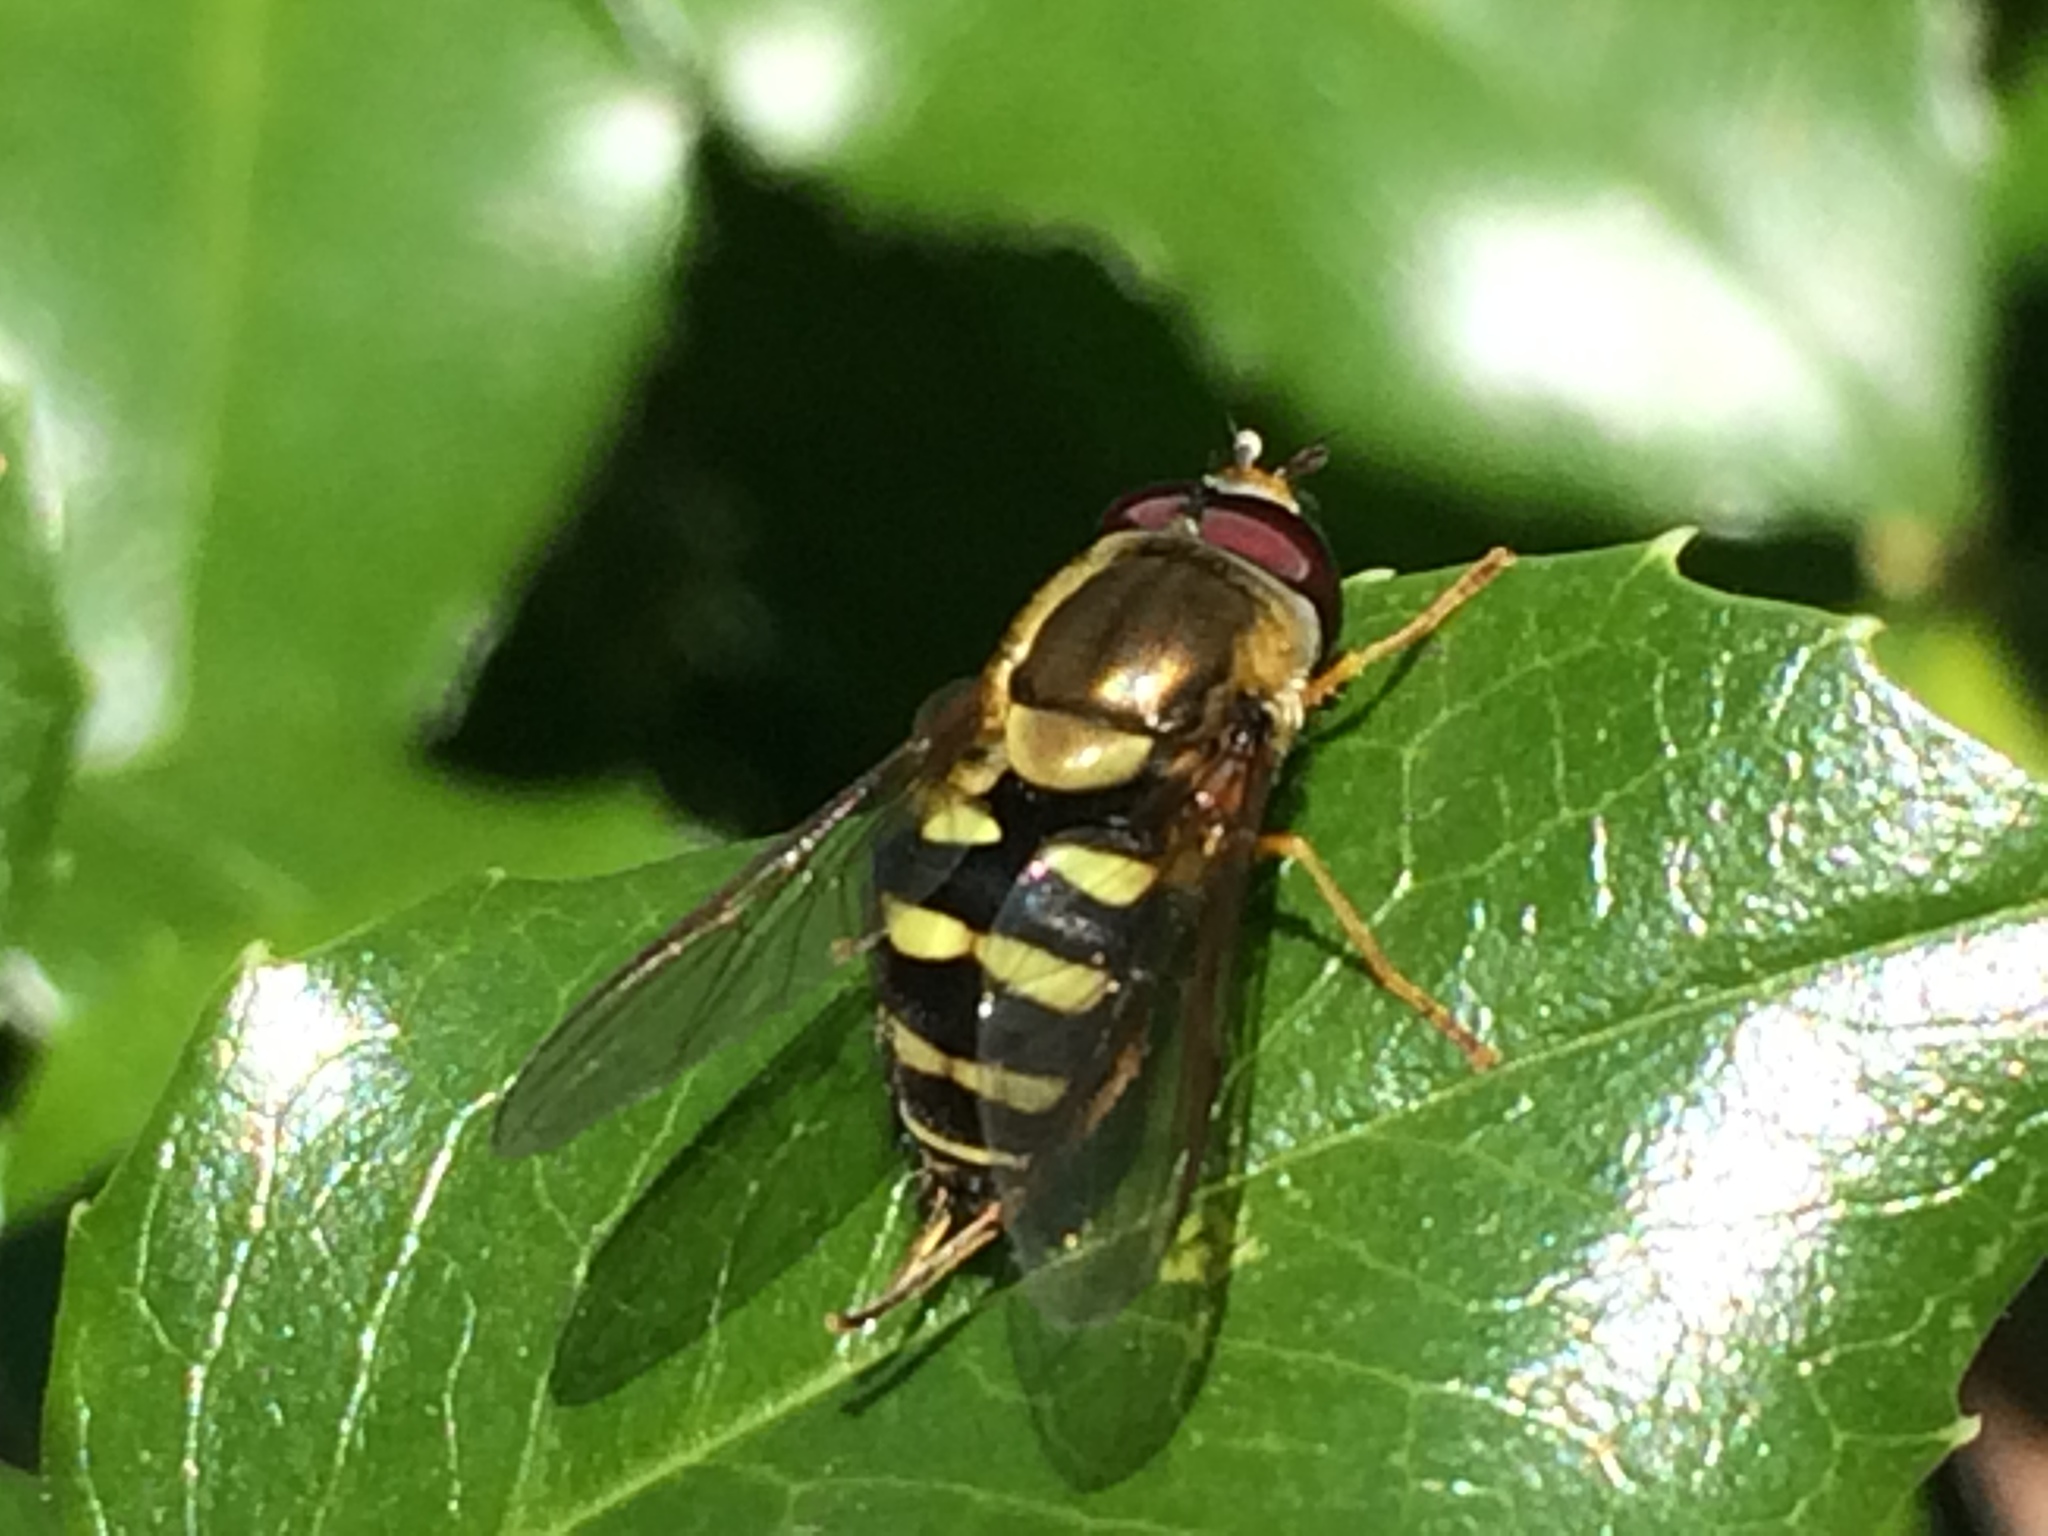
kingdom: Animalia
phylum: Arthropoda
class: Insecta
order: Diptera
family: Syrphidae
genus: Syrphus
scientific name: Syrphus opinator
